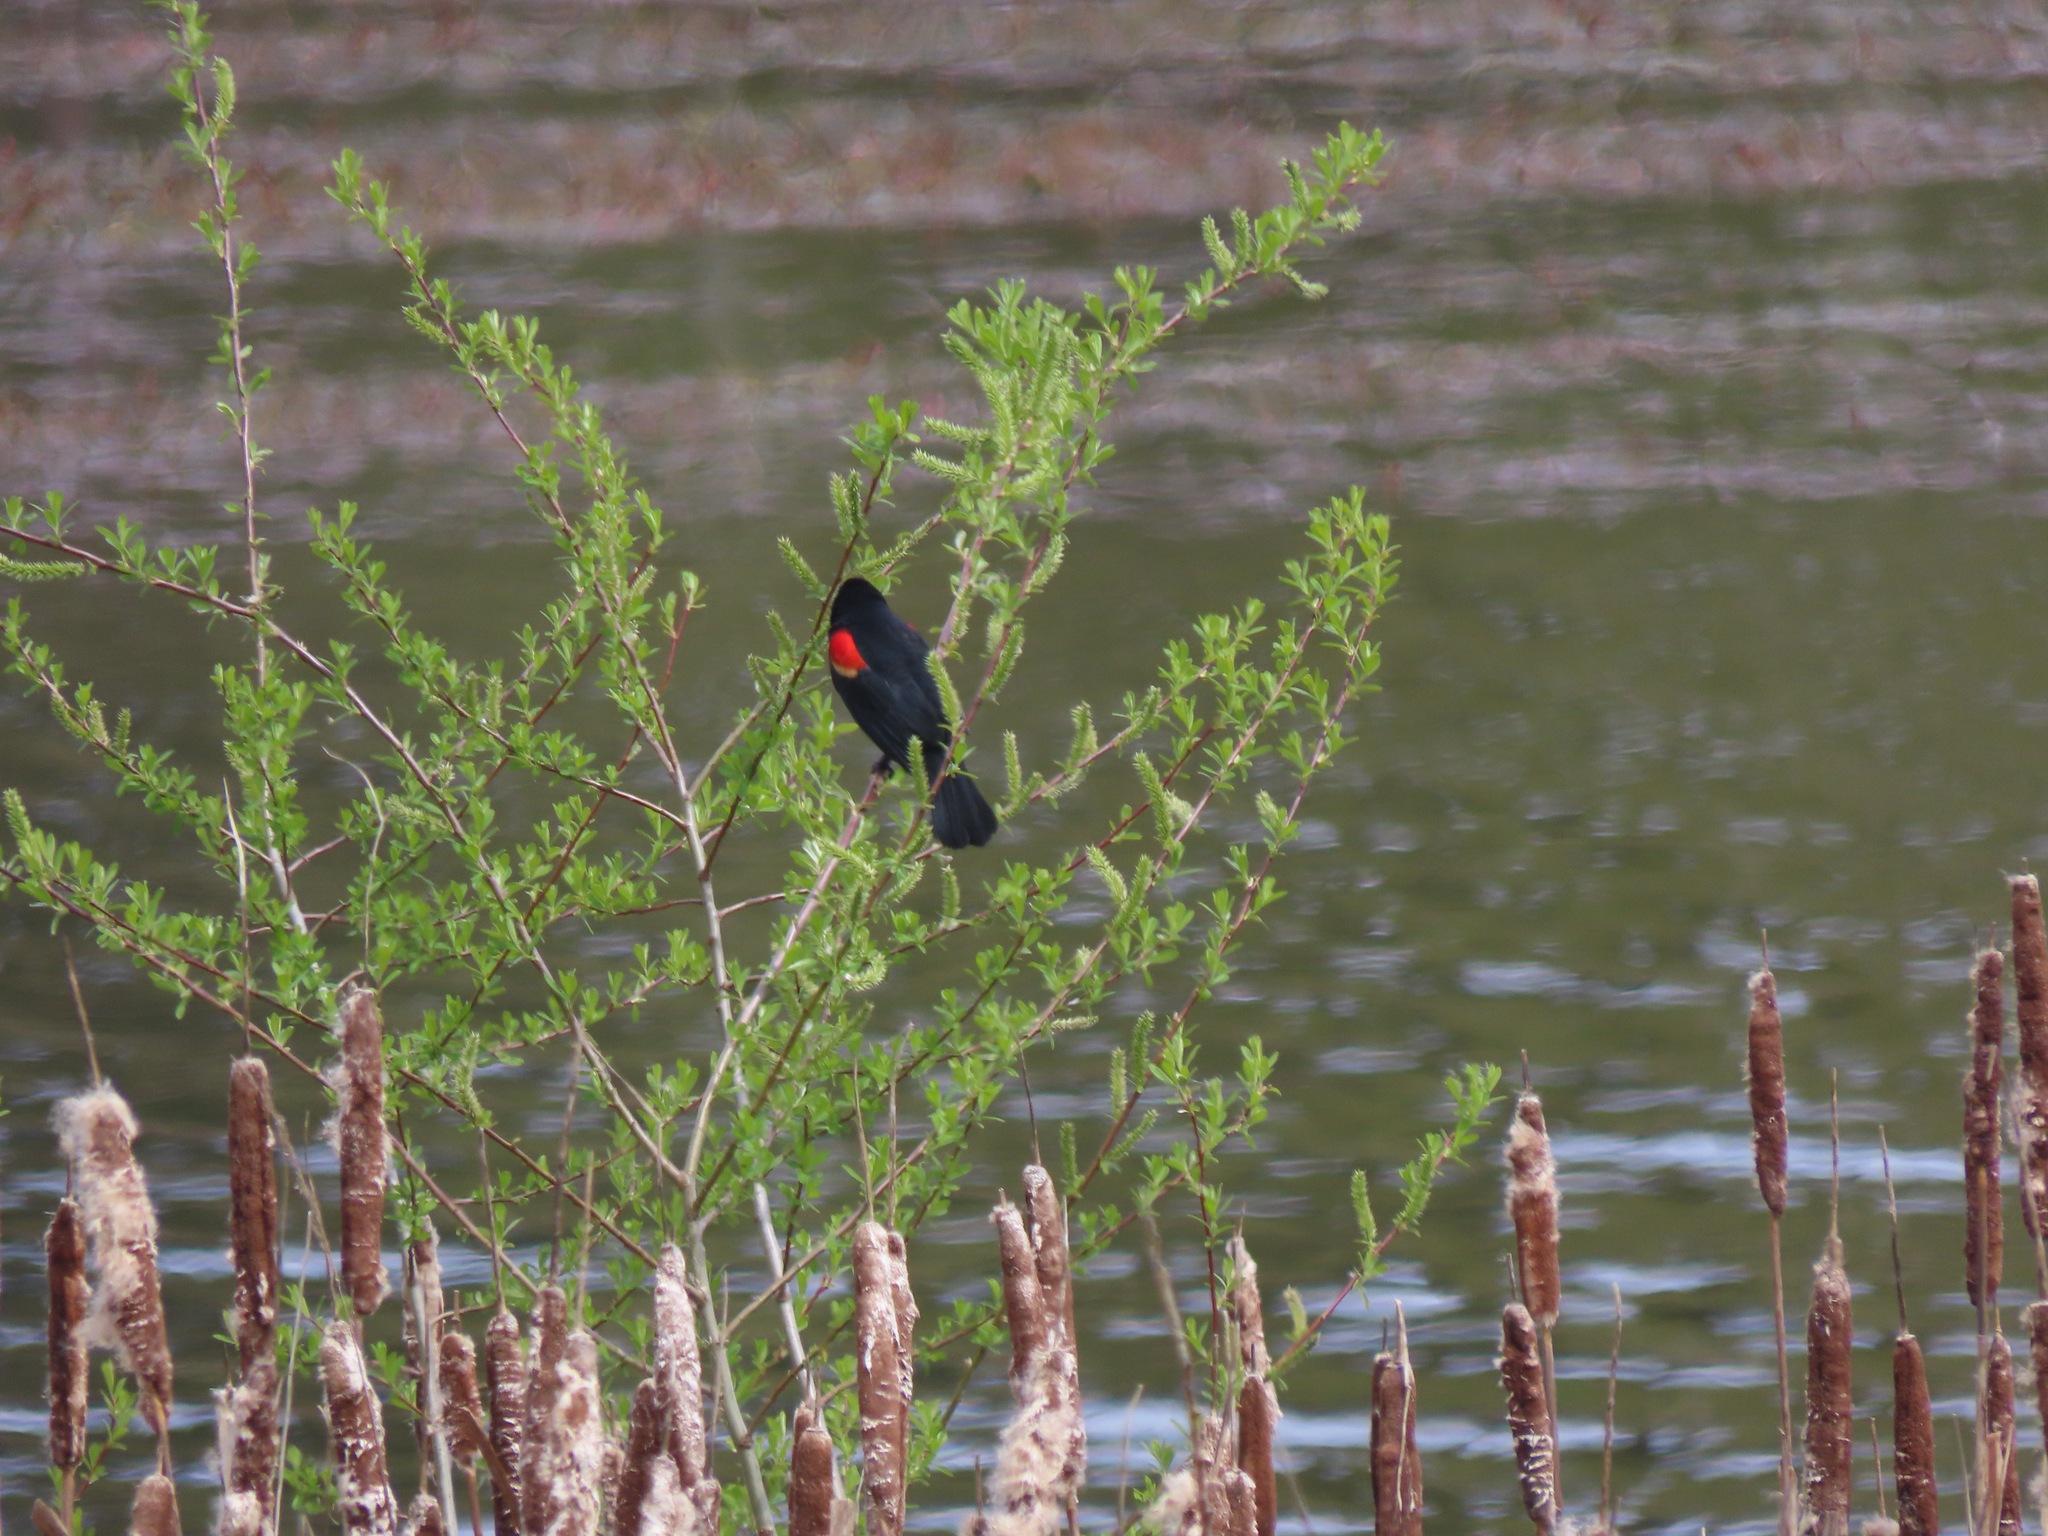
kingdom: Animalia
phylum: Chordata
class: Aves
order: Passeriformes
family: Icteridae
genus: Agelaius
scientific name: Agelaius phoeniceus
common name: Red-winged blackbird
